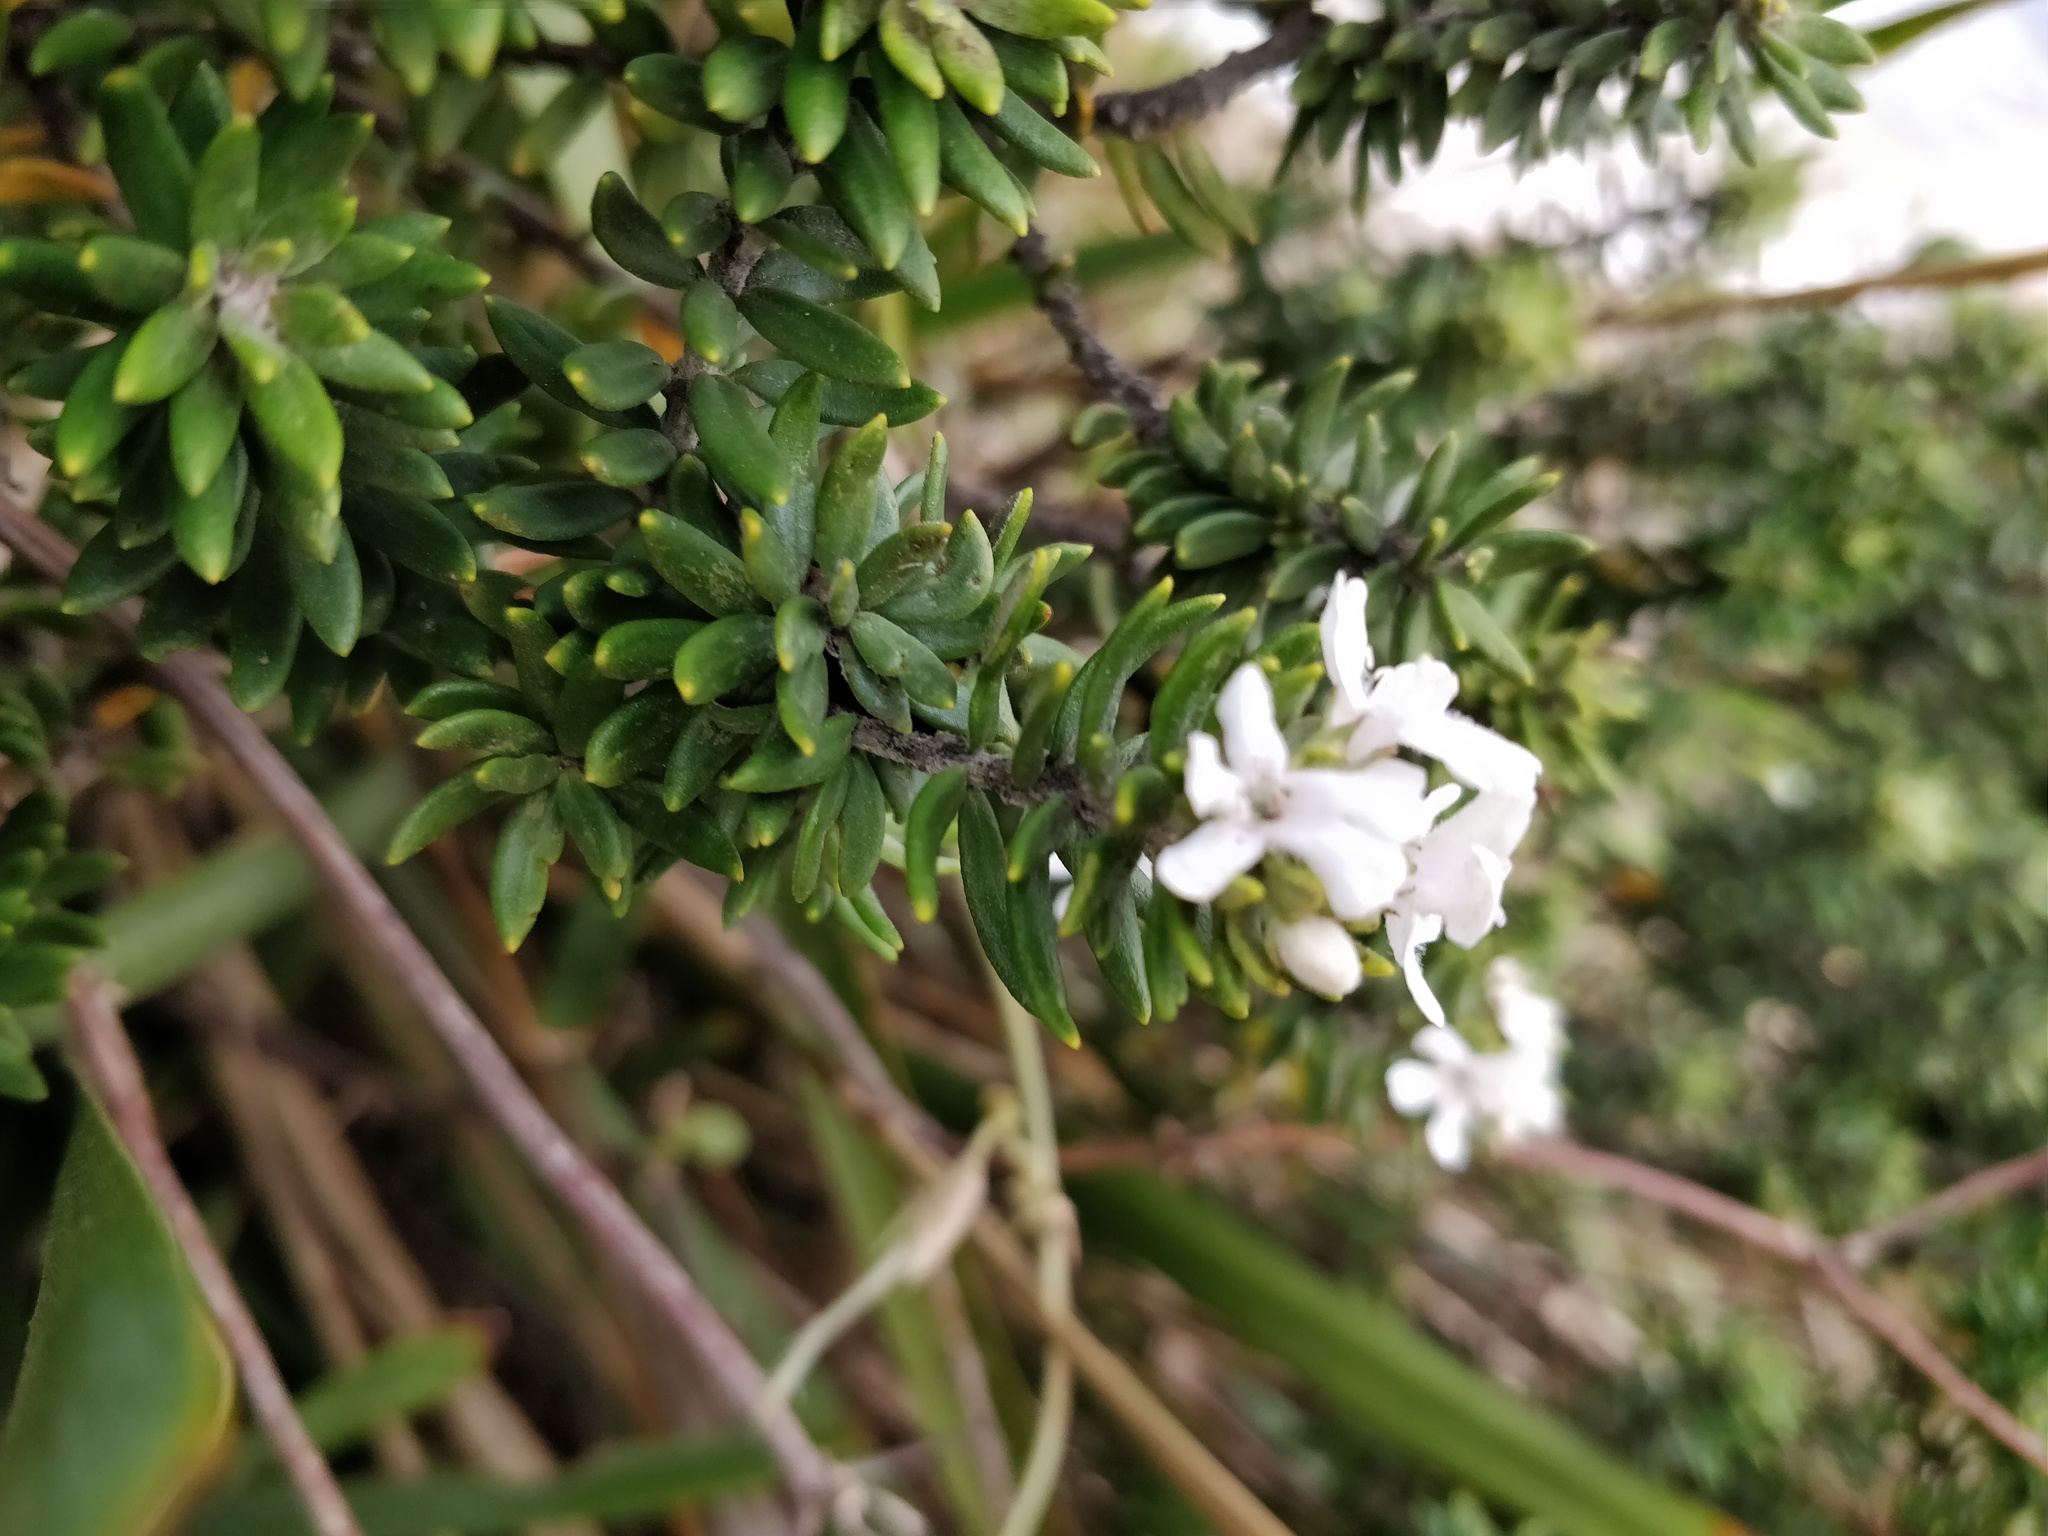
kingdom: Plantae
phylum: Tracheophyta
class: Magnoliopsida
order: Lamiales
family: Lamiaceae
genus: Westringia
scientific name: Westringia fruticosa
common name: Coastal-rosemary
